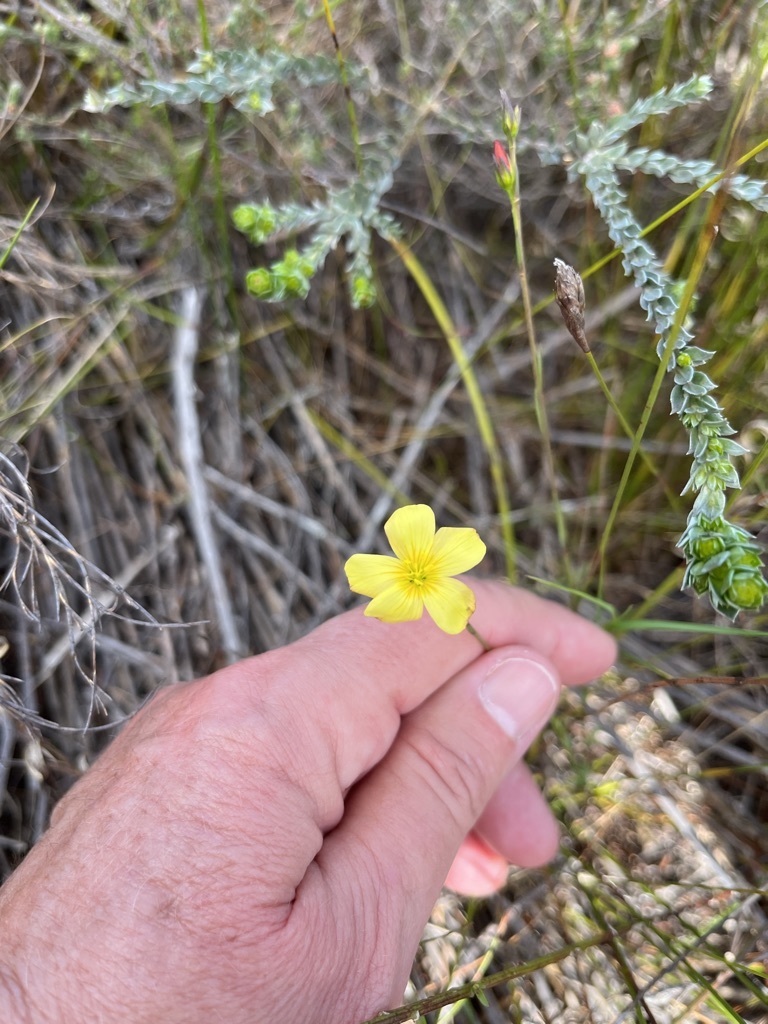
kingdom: Plantae
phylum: Tracheophyta
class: Magnoliopsida
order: Malpighiales
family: Linaceae
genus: Linum
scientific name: Linum africanum
